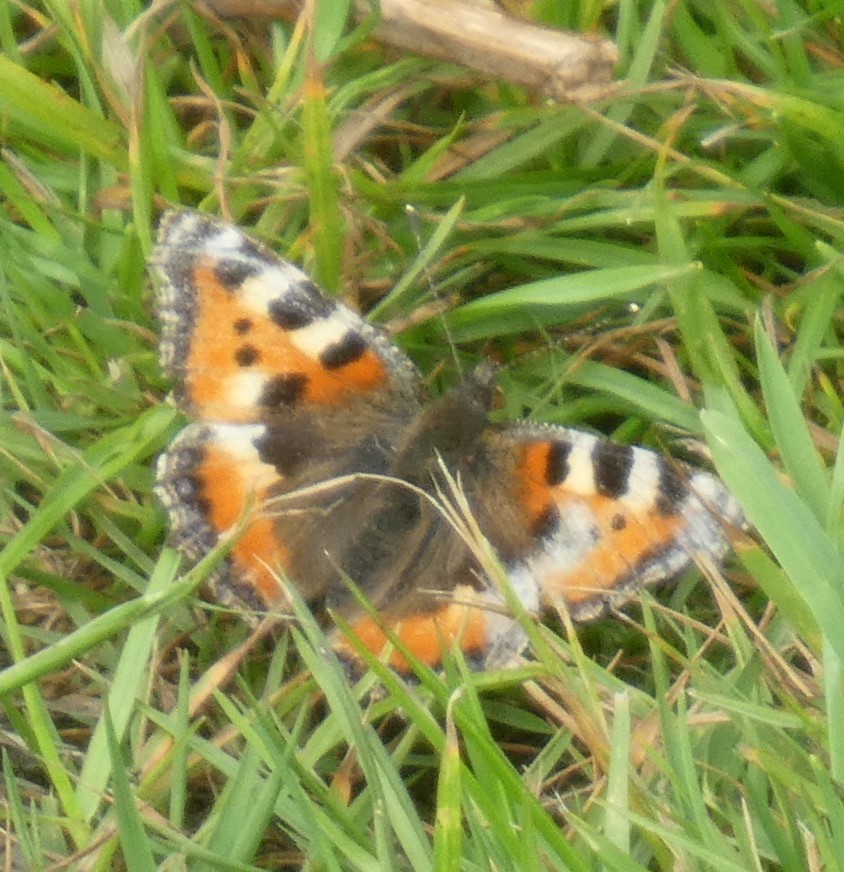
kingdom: Animalia
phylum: Arthropoda
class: Insecta
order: Lepidoptera
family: Nymphalidae
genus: Aglais
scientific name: Aglais urticae
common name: Small tortoiseshell
